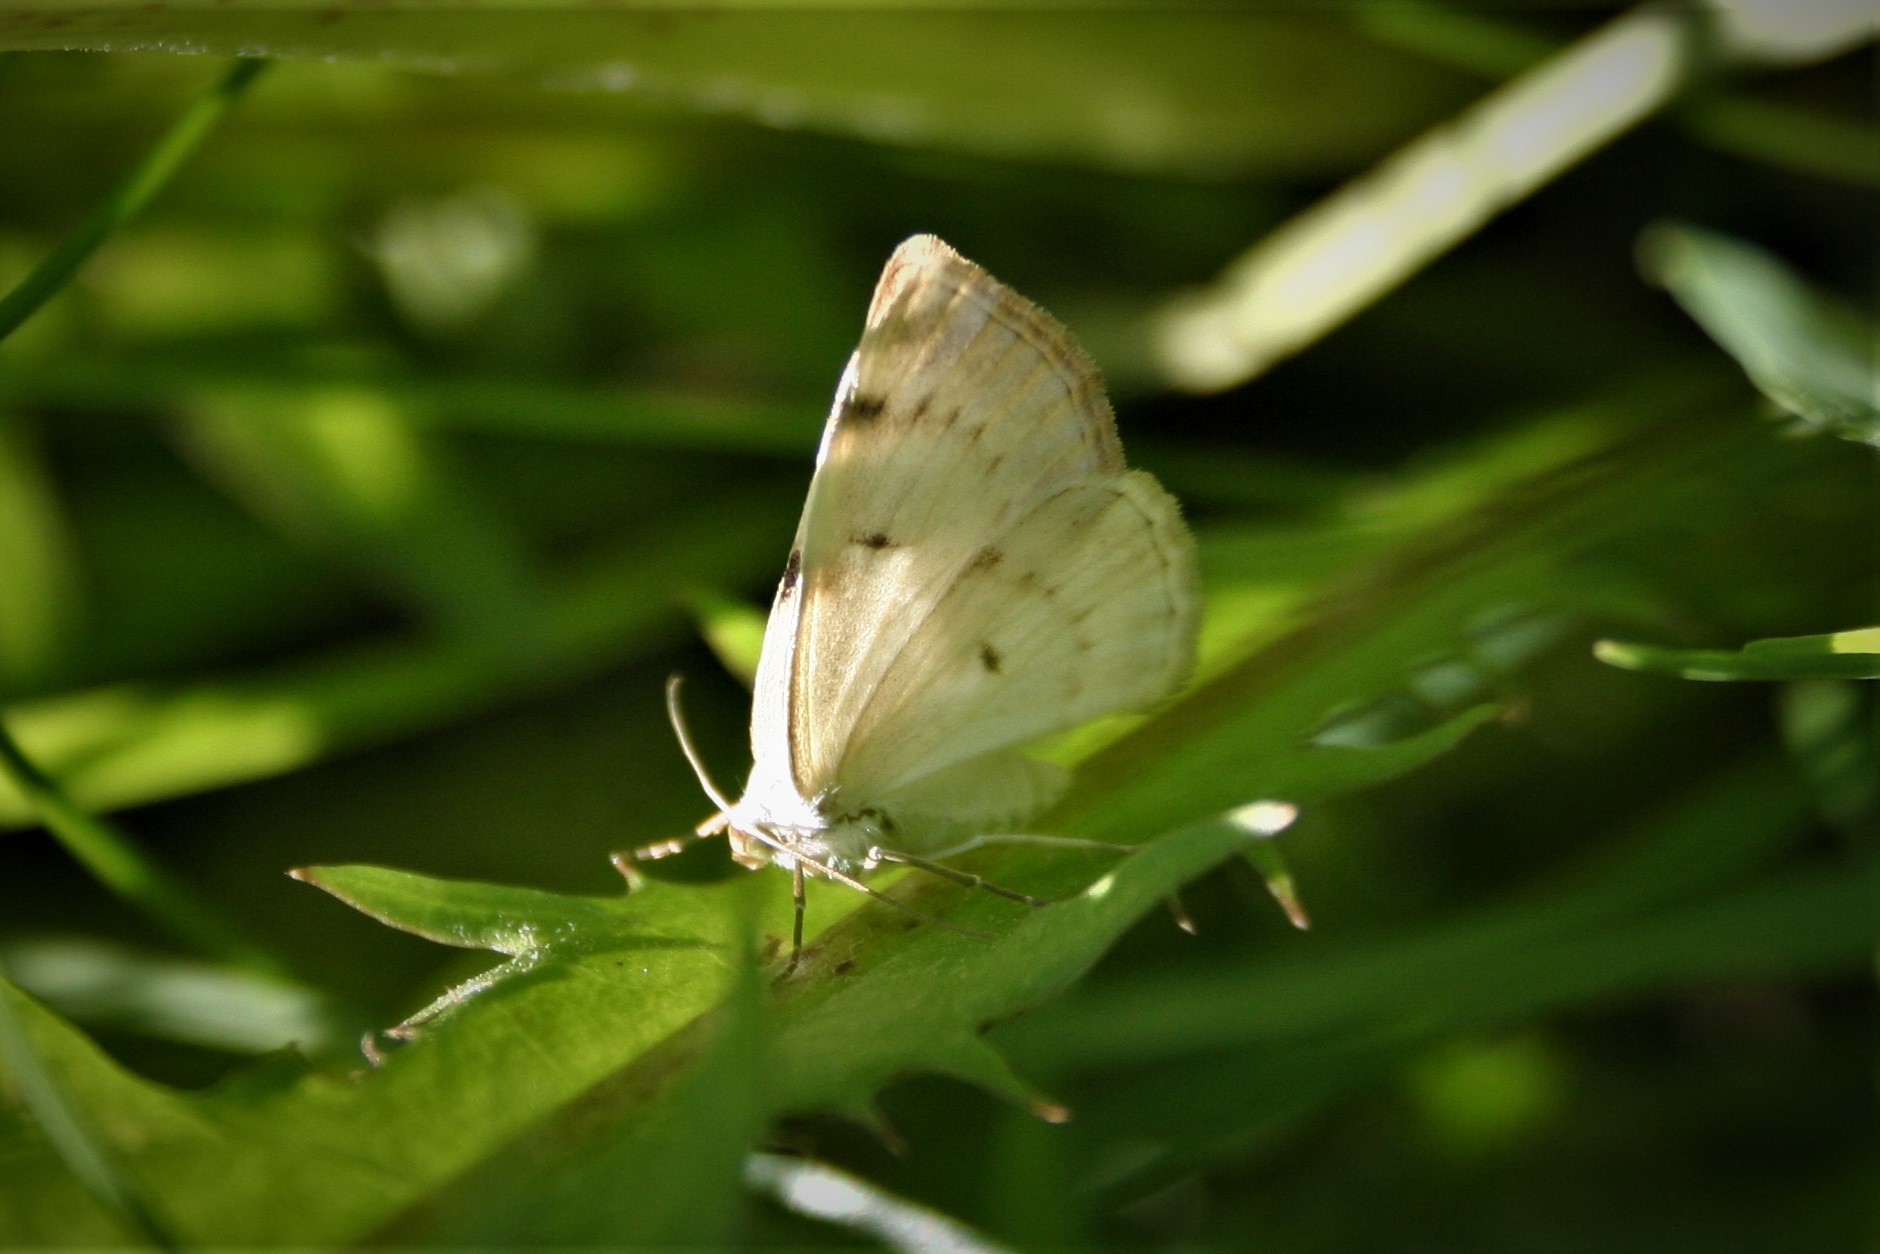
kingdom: Animalia
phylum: Arthropoda
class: Insecta
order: Lepidoptera
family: Geometridae
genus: Lomographa
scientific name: Lomographa bimaculata
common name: White-pinion spotted
